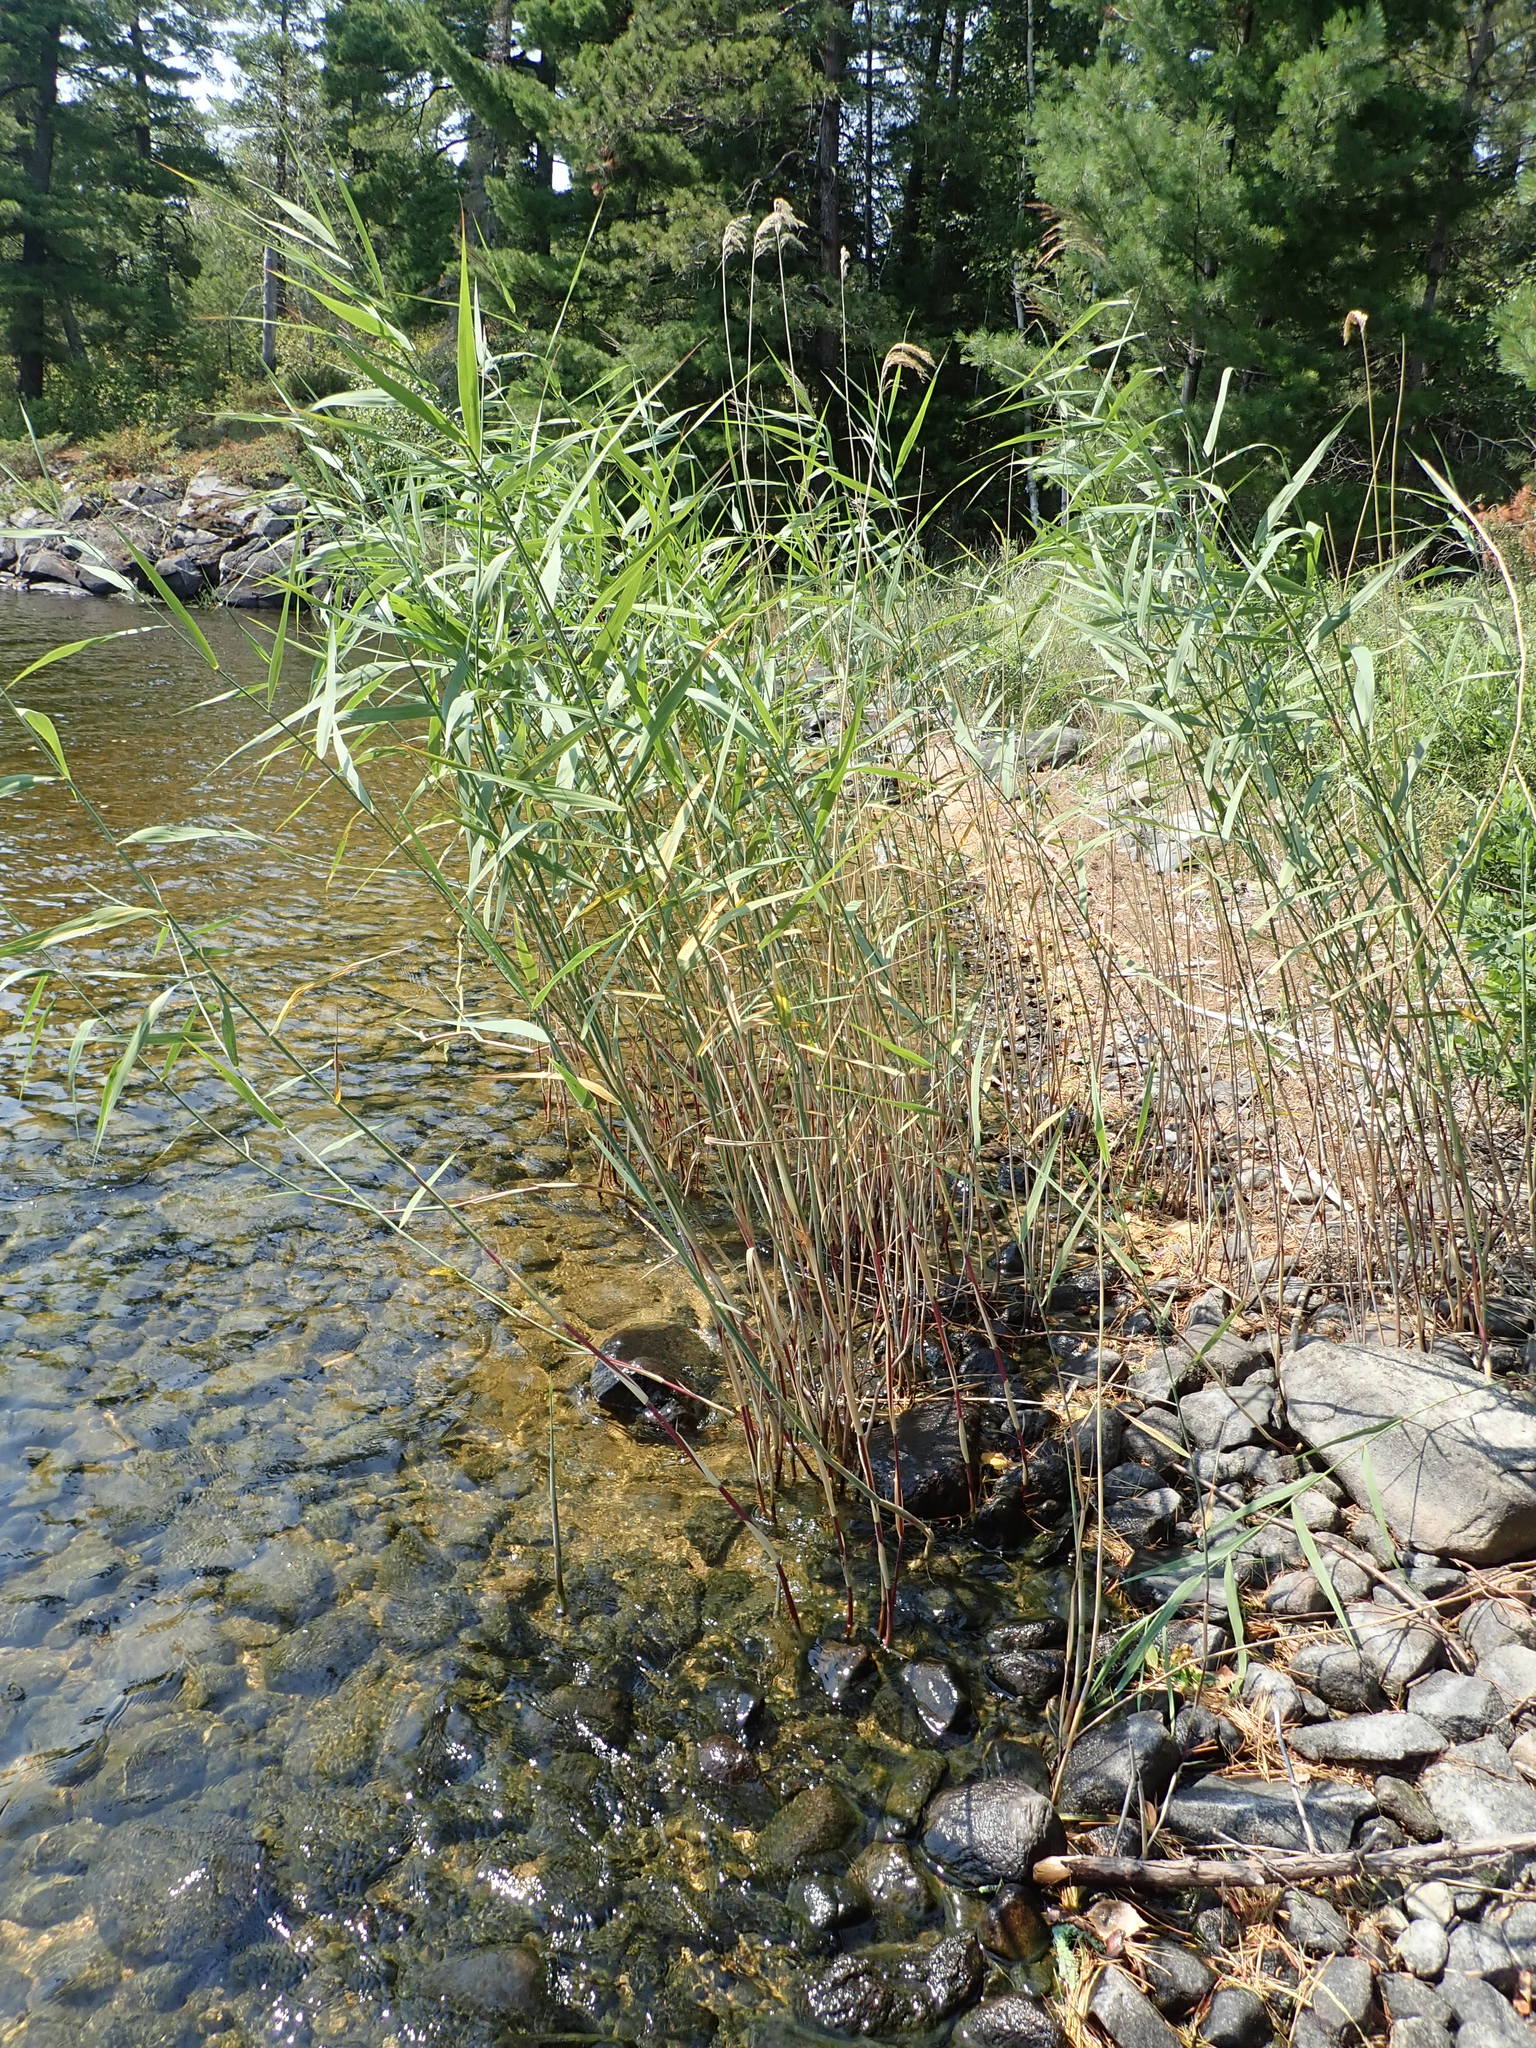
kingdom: Plantae
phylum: Tracheophyta
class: Liliopsida
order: Poales
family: Poaceae
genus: Phragmites
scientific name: Phragmites australis
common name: Common reed
